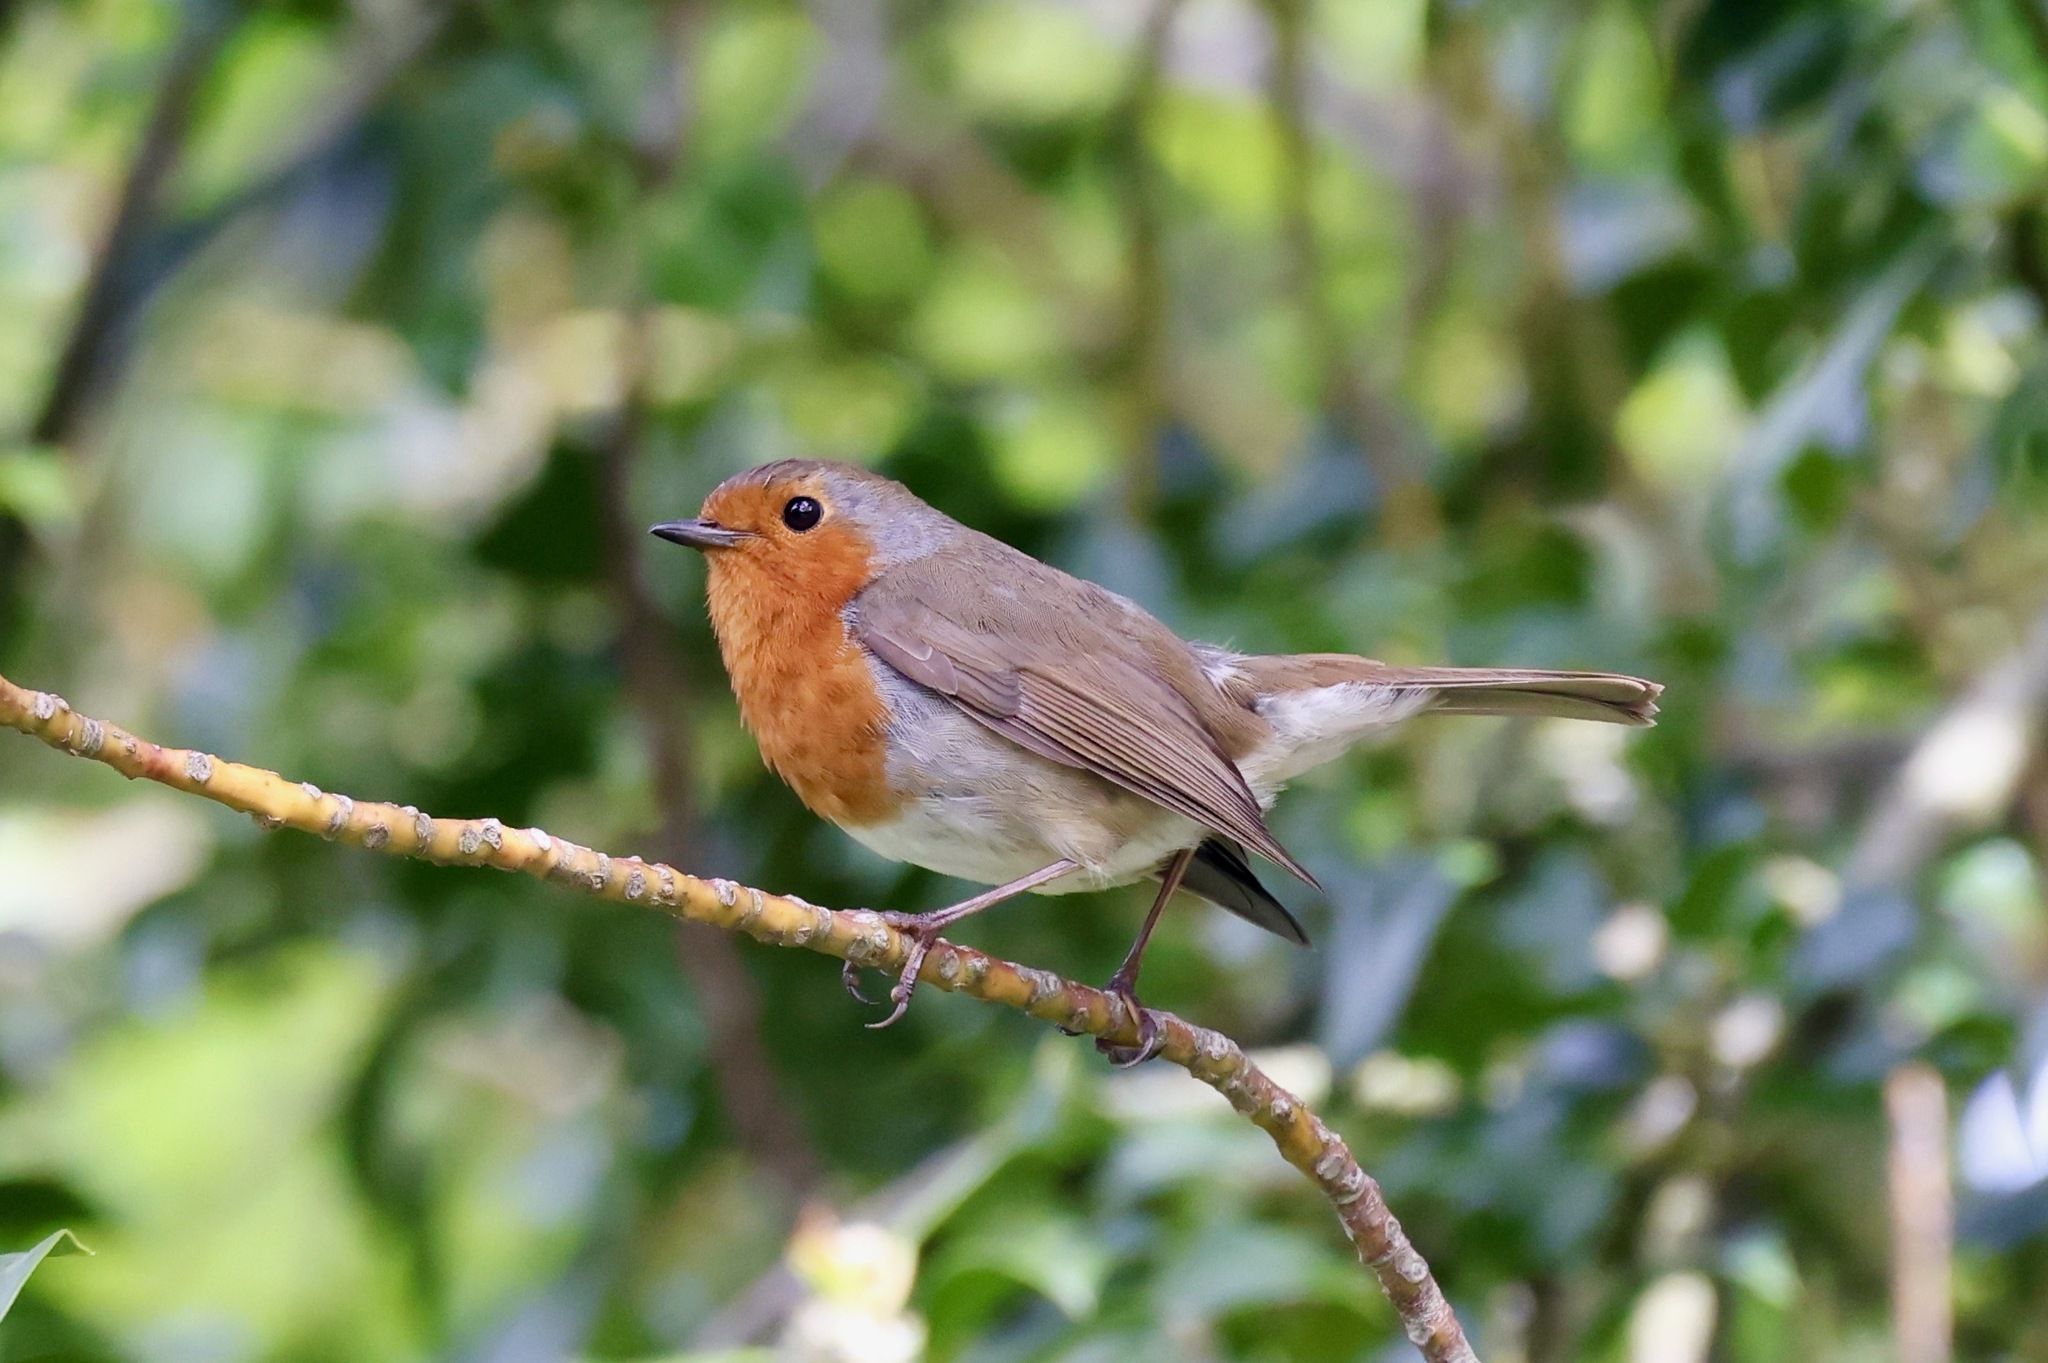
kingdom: Animalia
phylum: Chordata
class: Aves
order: Passeriformes
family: Muscicapidae
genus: Erithacus
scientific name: Erithacus rubecula
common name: European robin
